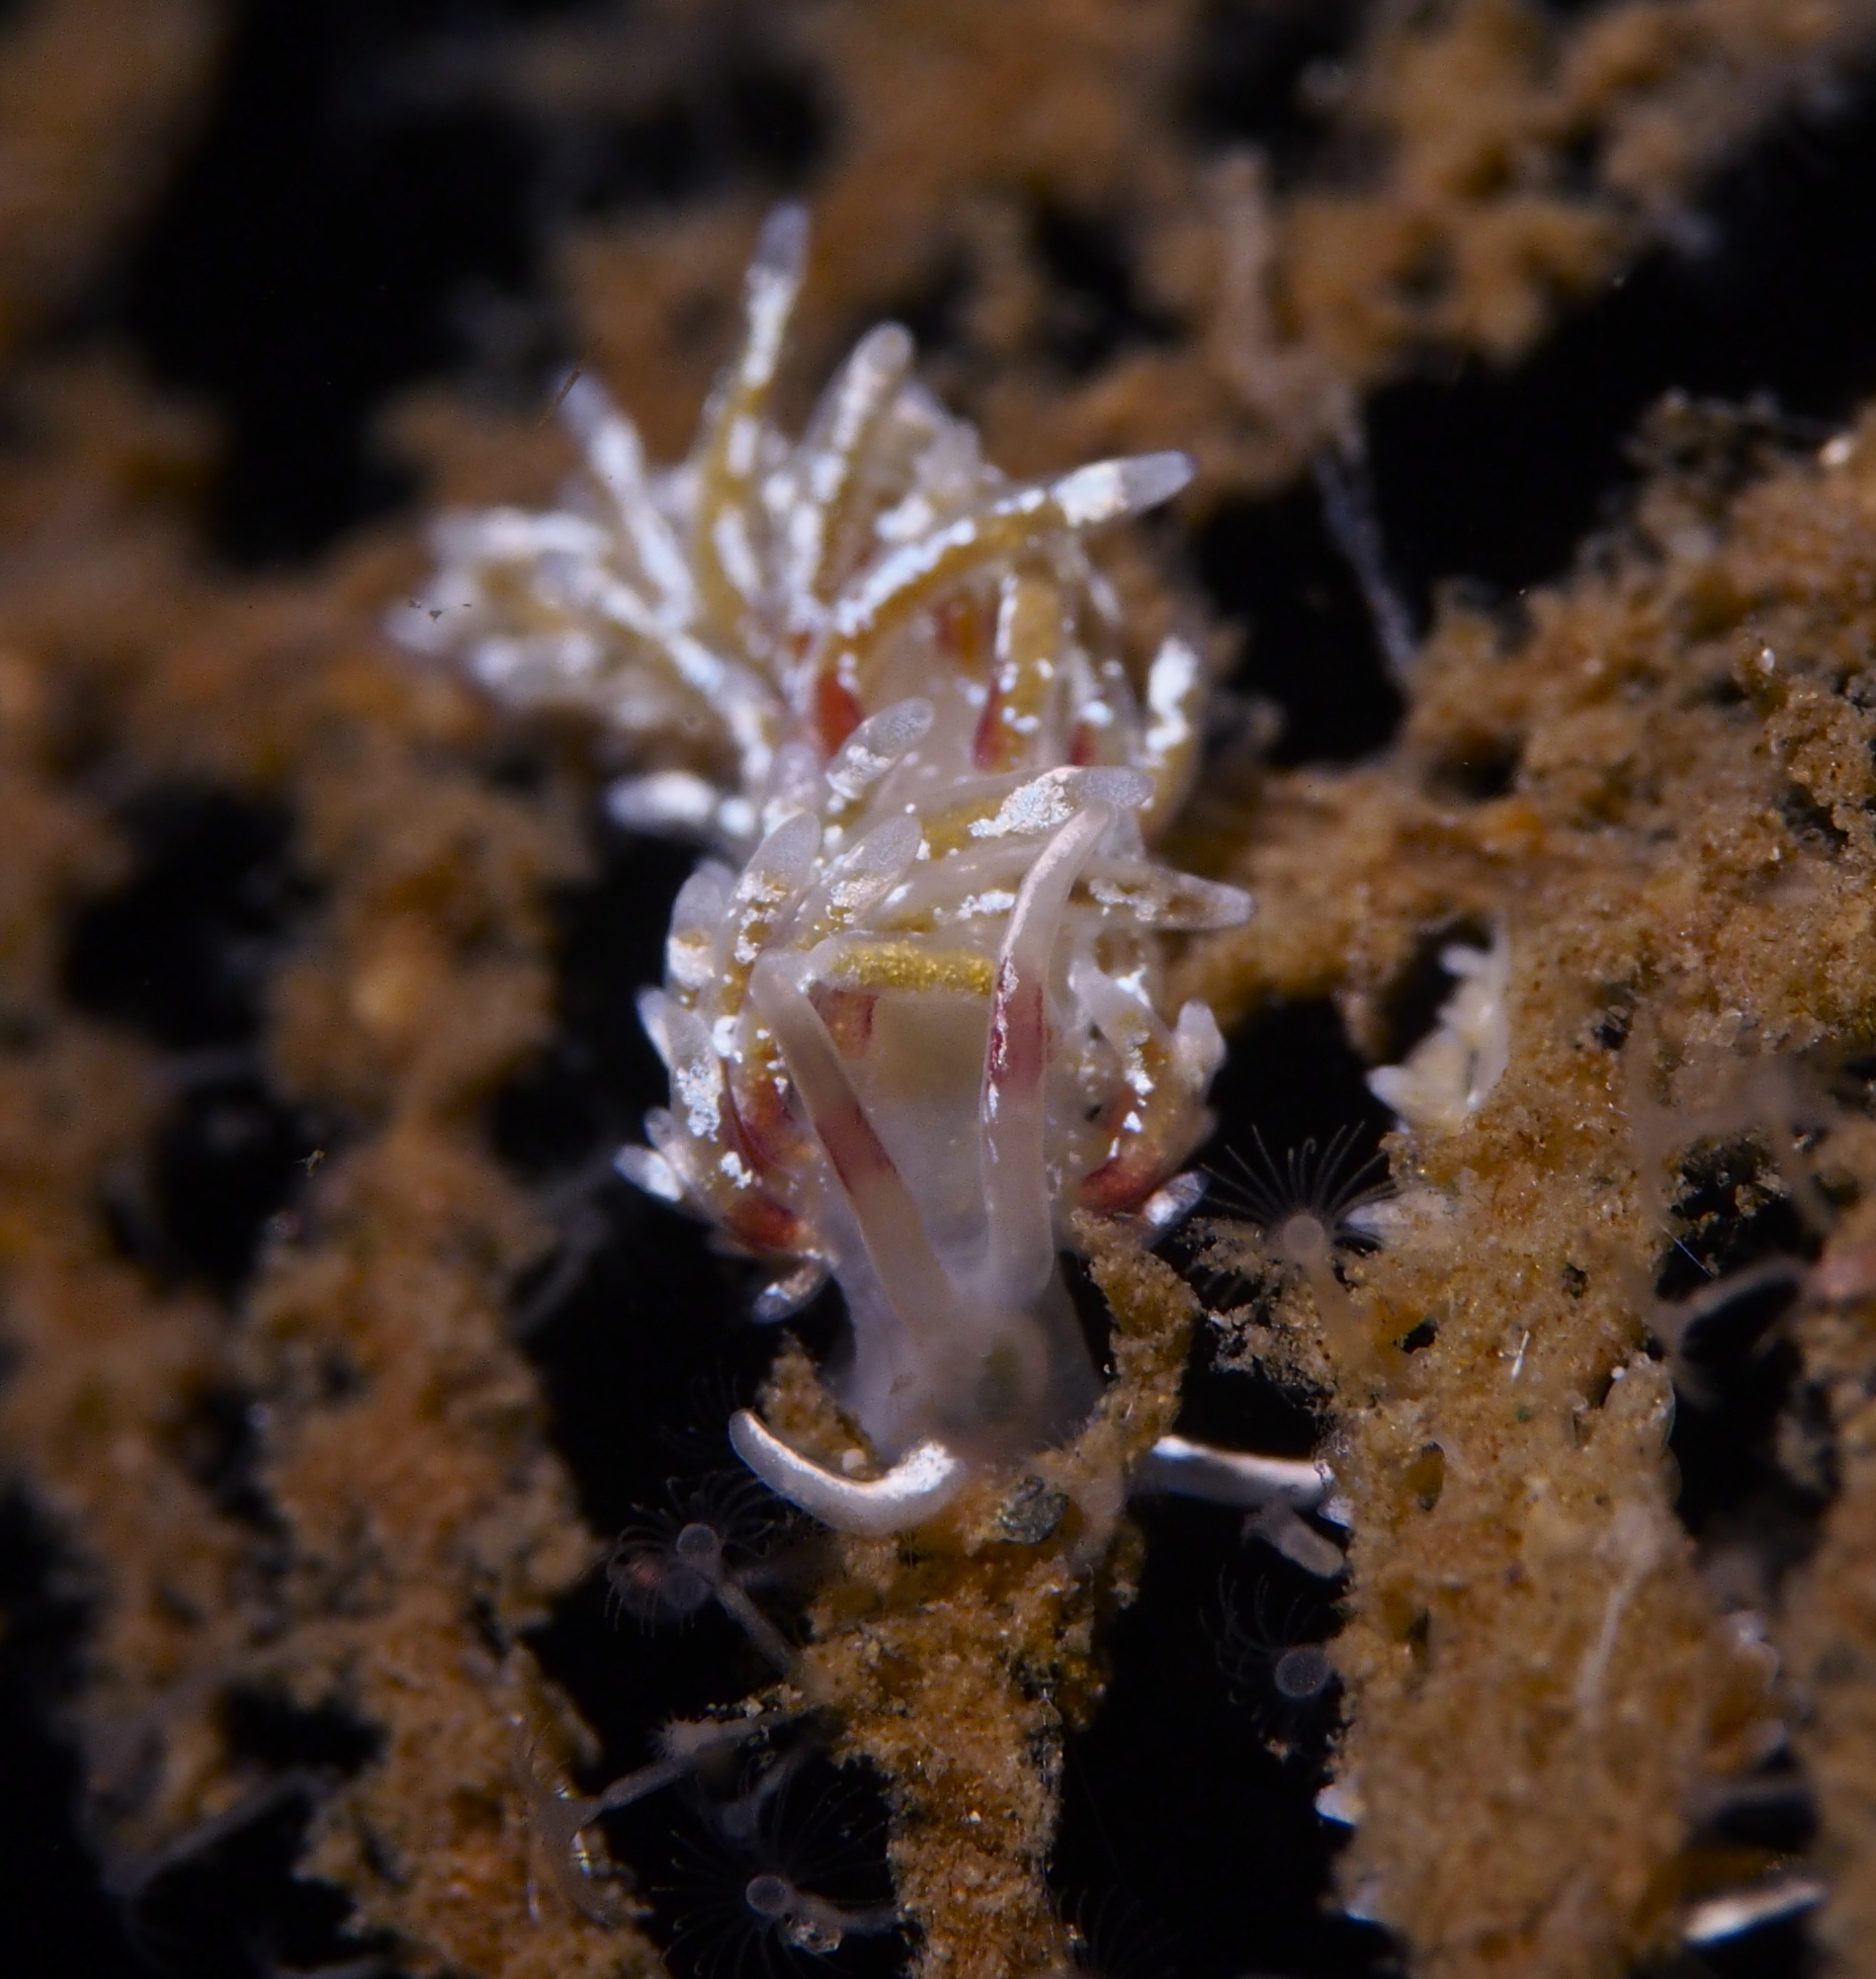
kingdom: Animalia
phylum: Mollusca
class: Gastropoda
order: Nudibranchia
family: Trinchesiidae
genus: Rubramoena
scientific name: Rubramoena rubescens
